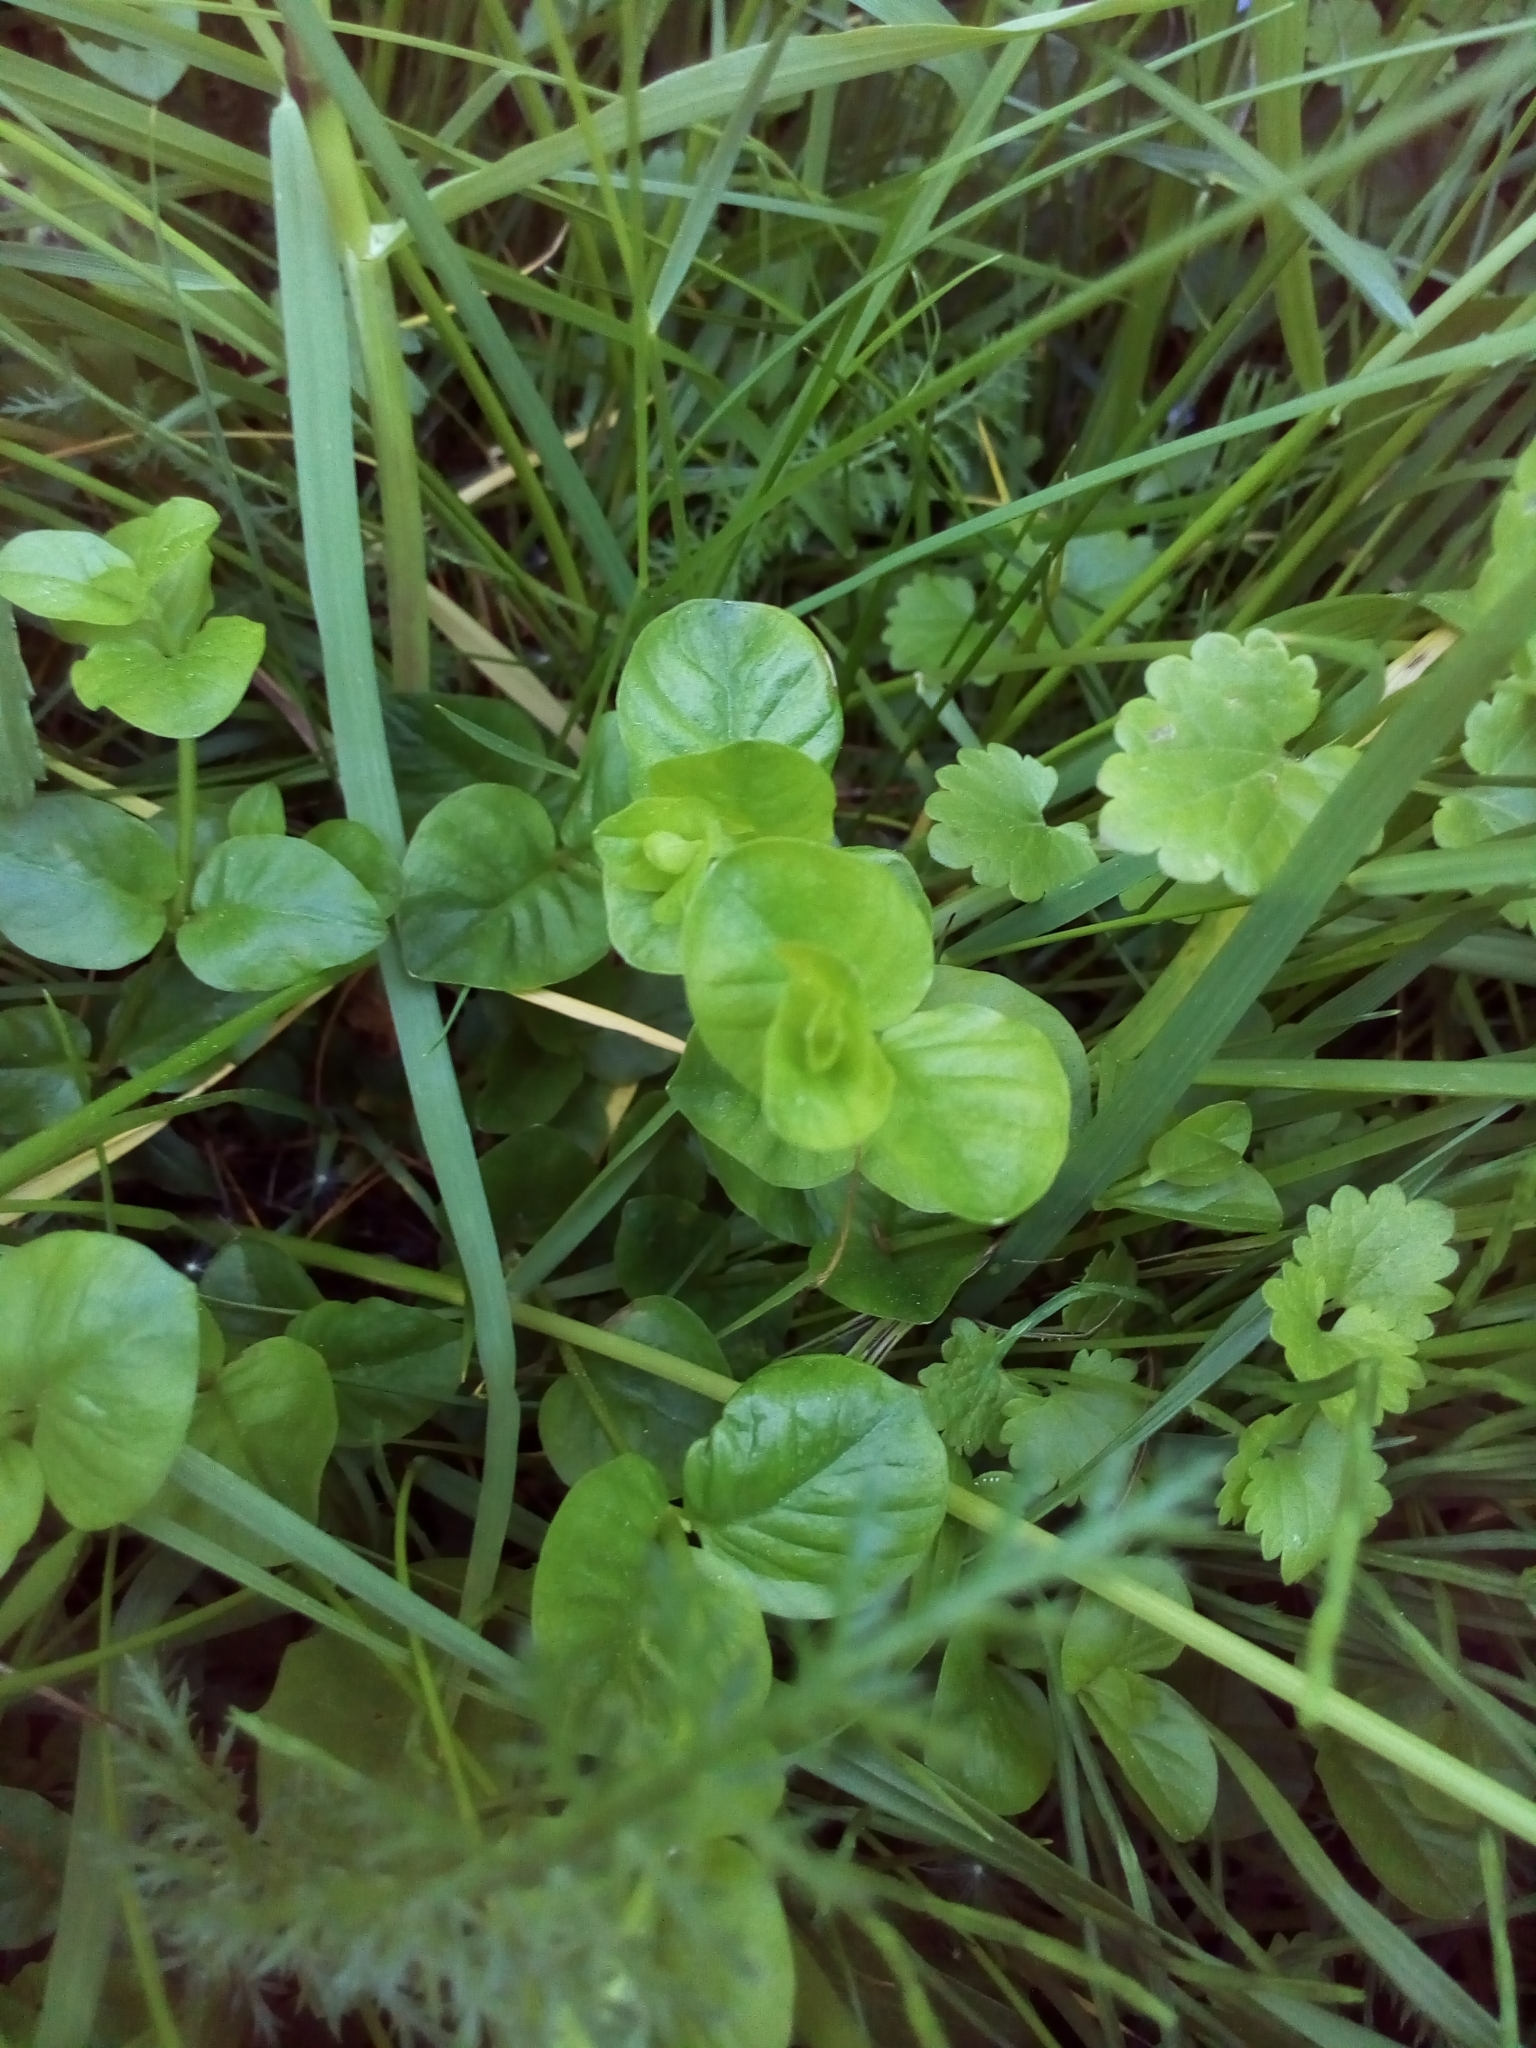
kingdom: Plantae
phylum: Tracheophyta
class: Magnoliopsida
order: Ericales
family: Primulaceae
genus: Lysimachia
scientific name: Lysimachia nummularia
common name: Moneywort
